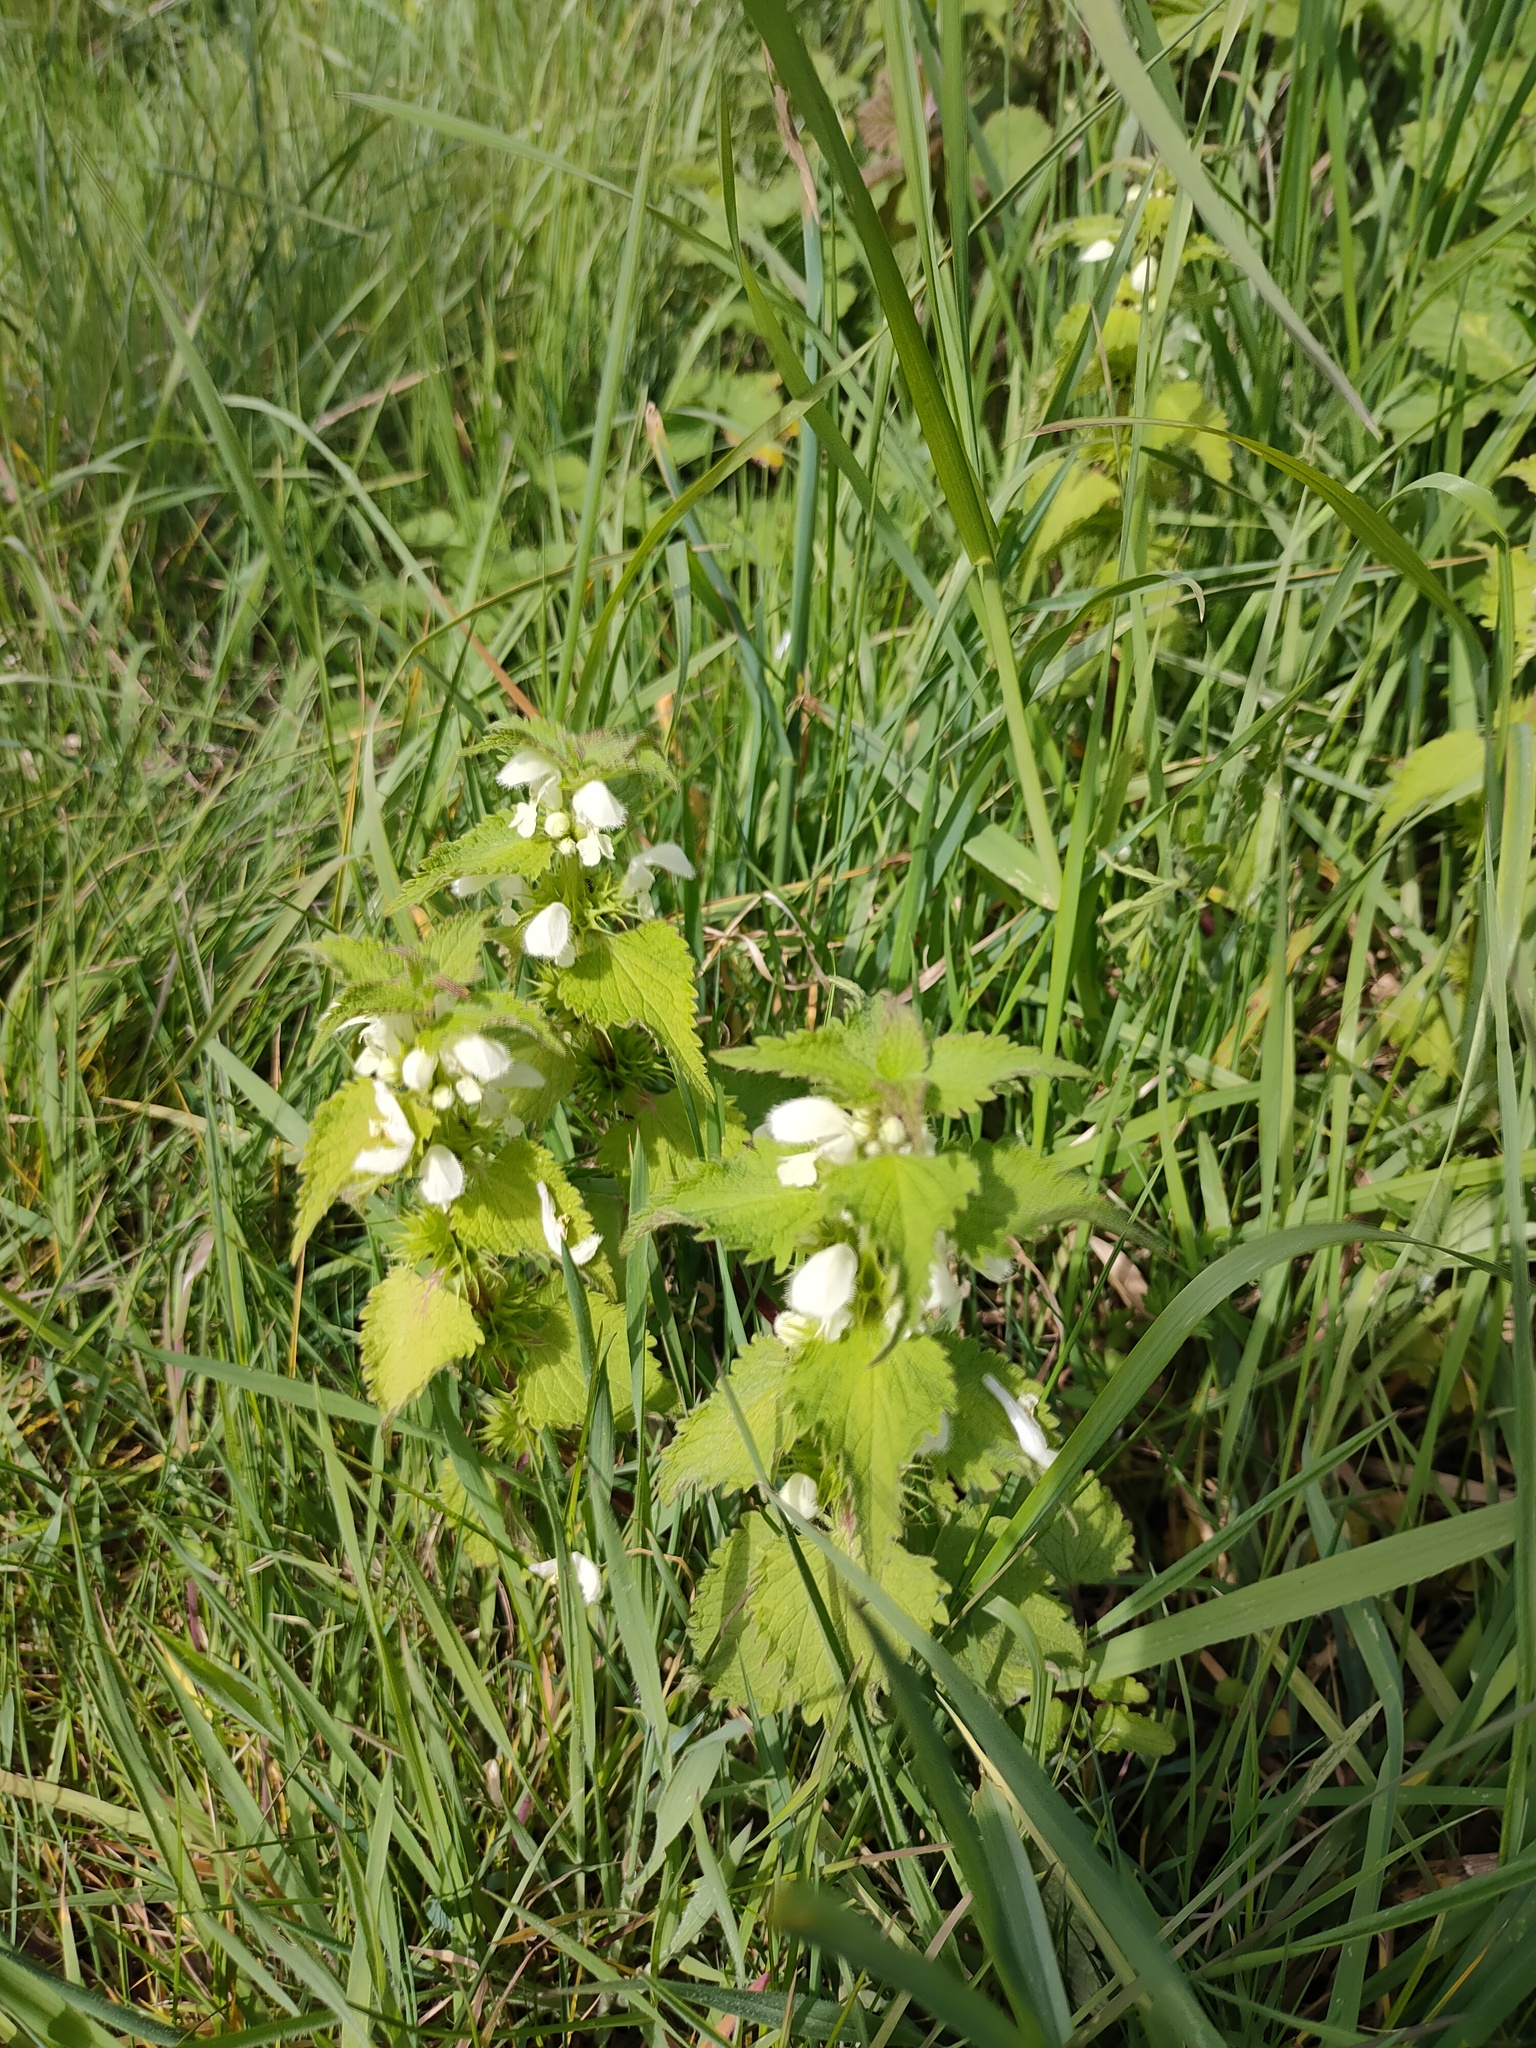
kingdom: Plantae
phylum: Tracheophyta
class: Magnoliopsida
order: Lamiales
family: Lamiaceae
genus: Lamium
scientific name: Lamium album
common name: White dead-nettle
